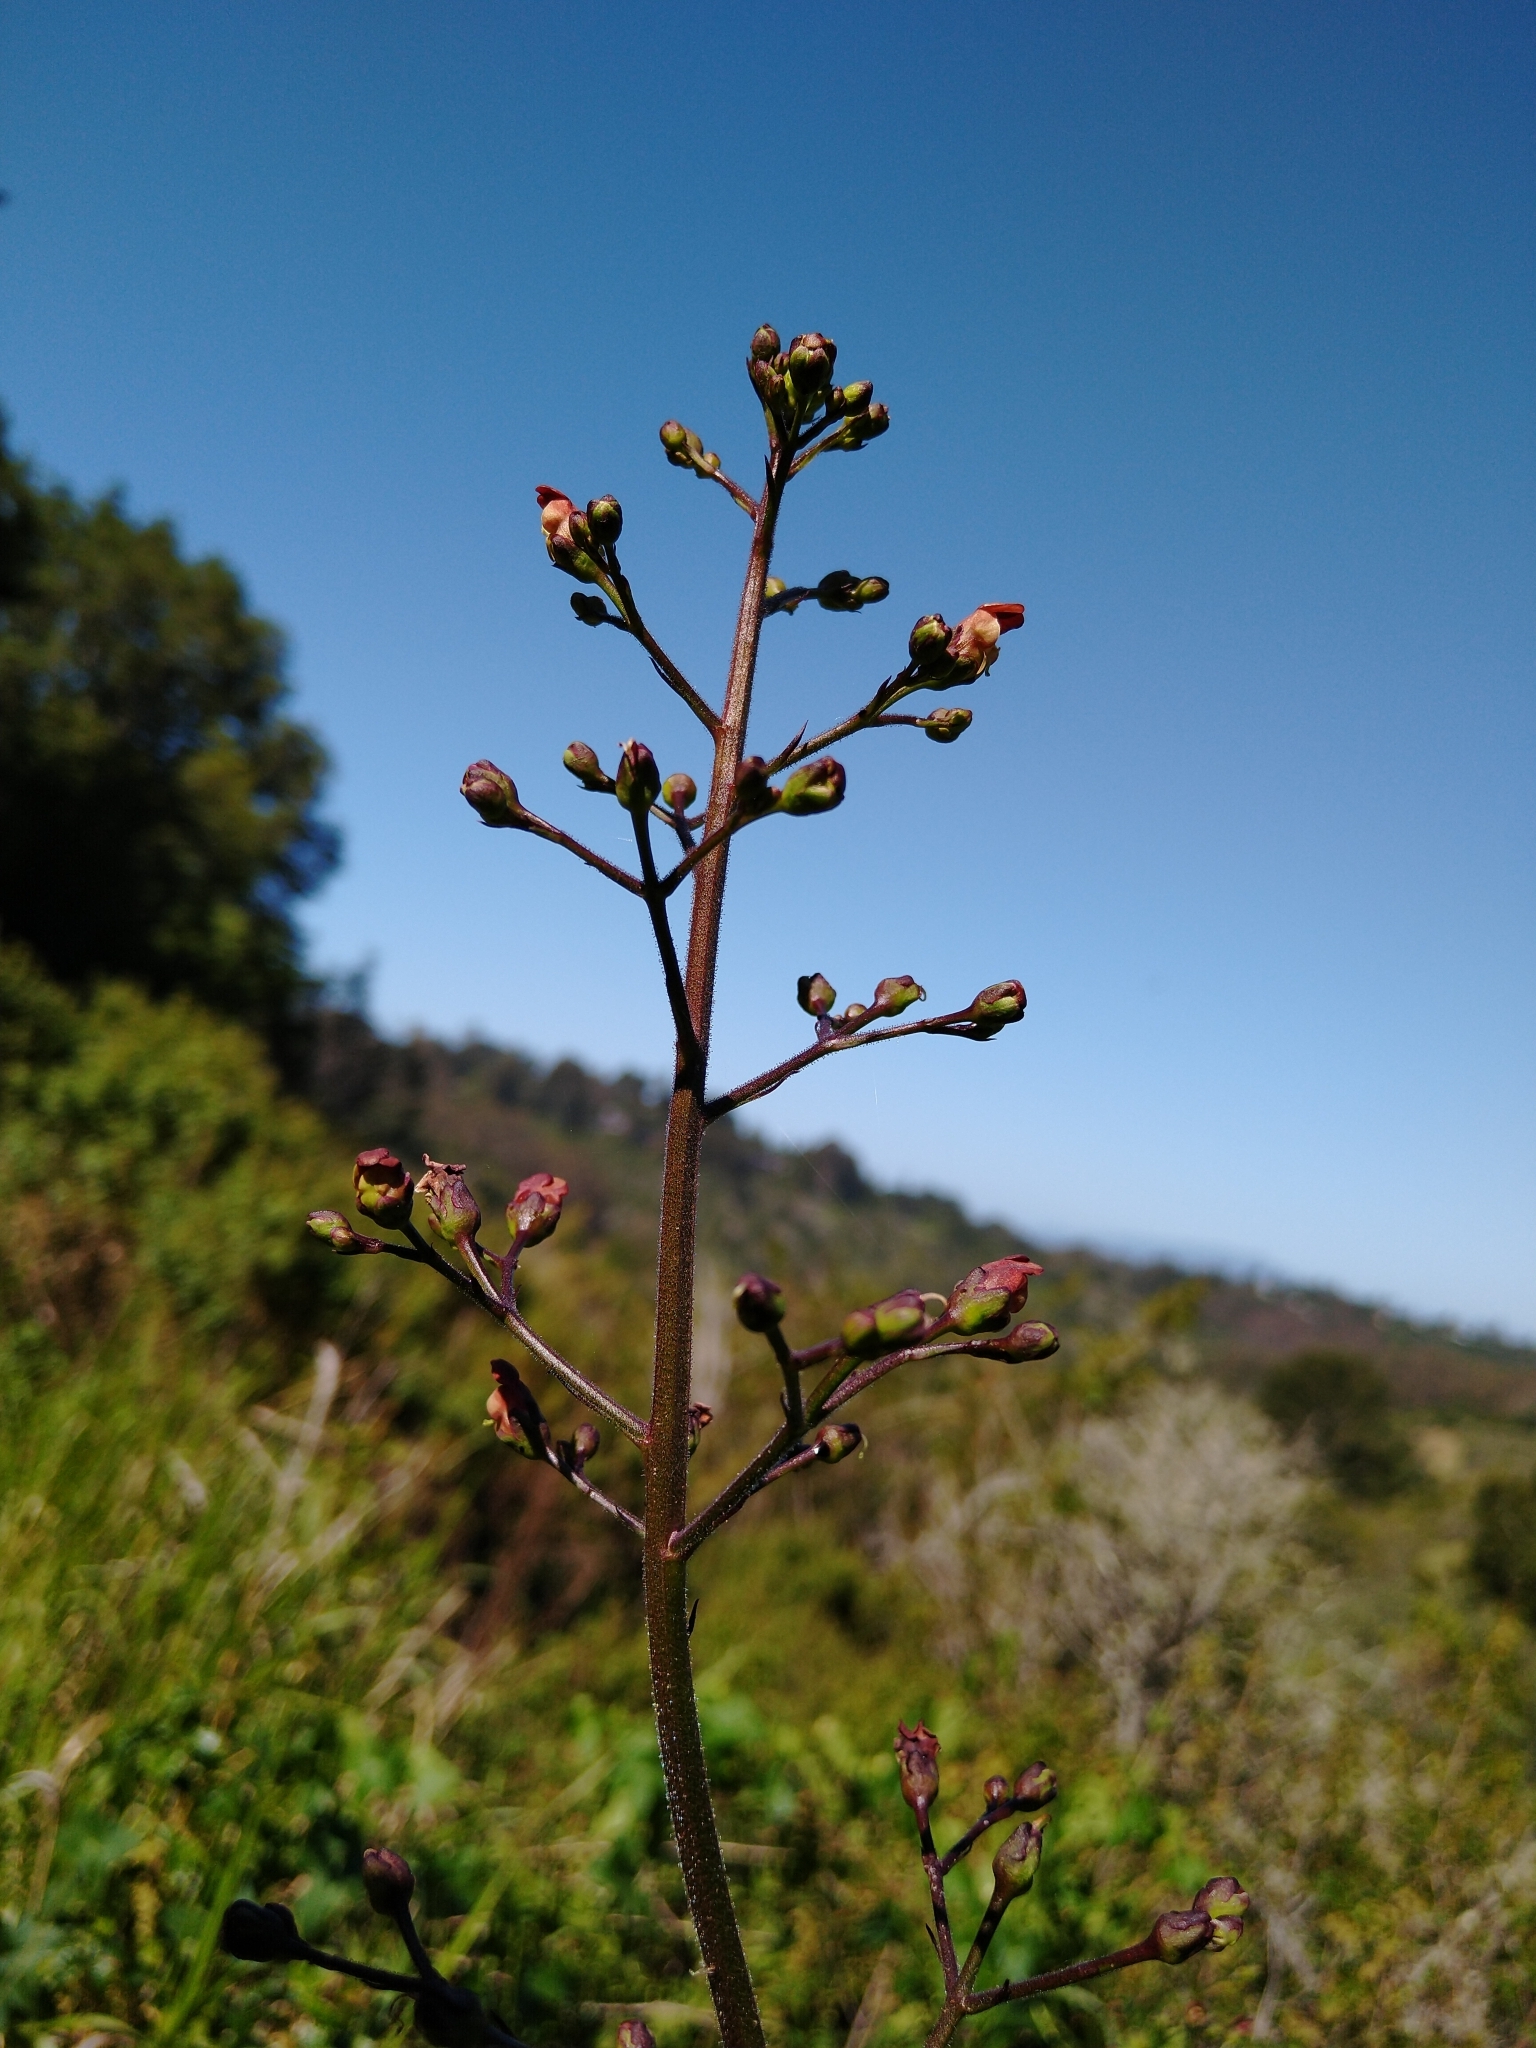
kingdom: Plantae
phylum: Tracheophyta
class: Magnoliopsida
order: Lamiales
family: Scrophulariaceae
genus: Scrophularia
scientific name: Scrophularia californica
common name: California figwort
